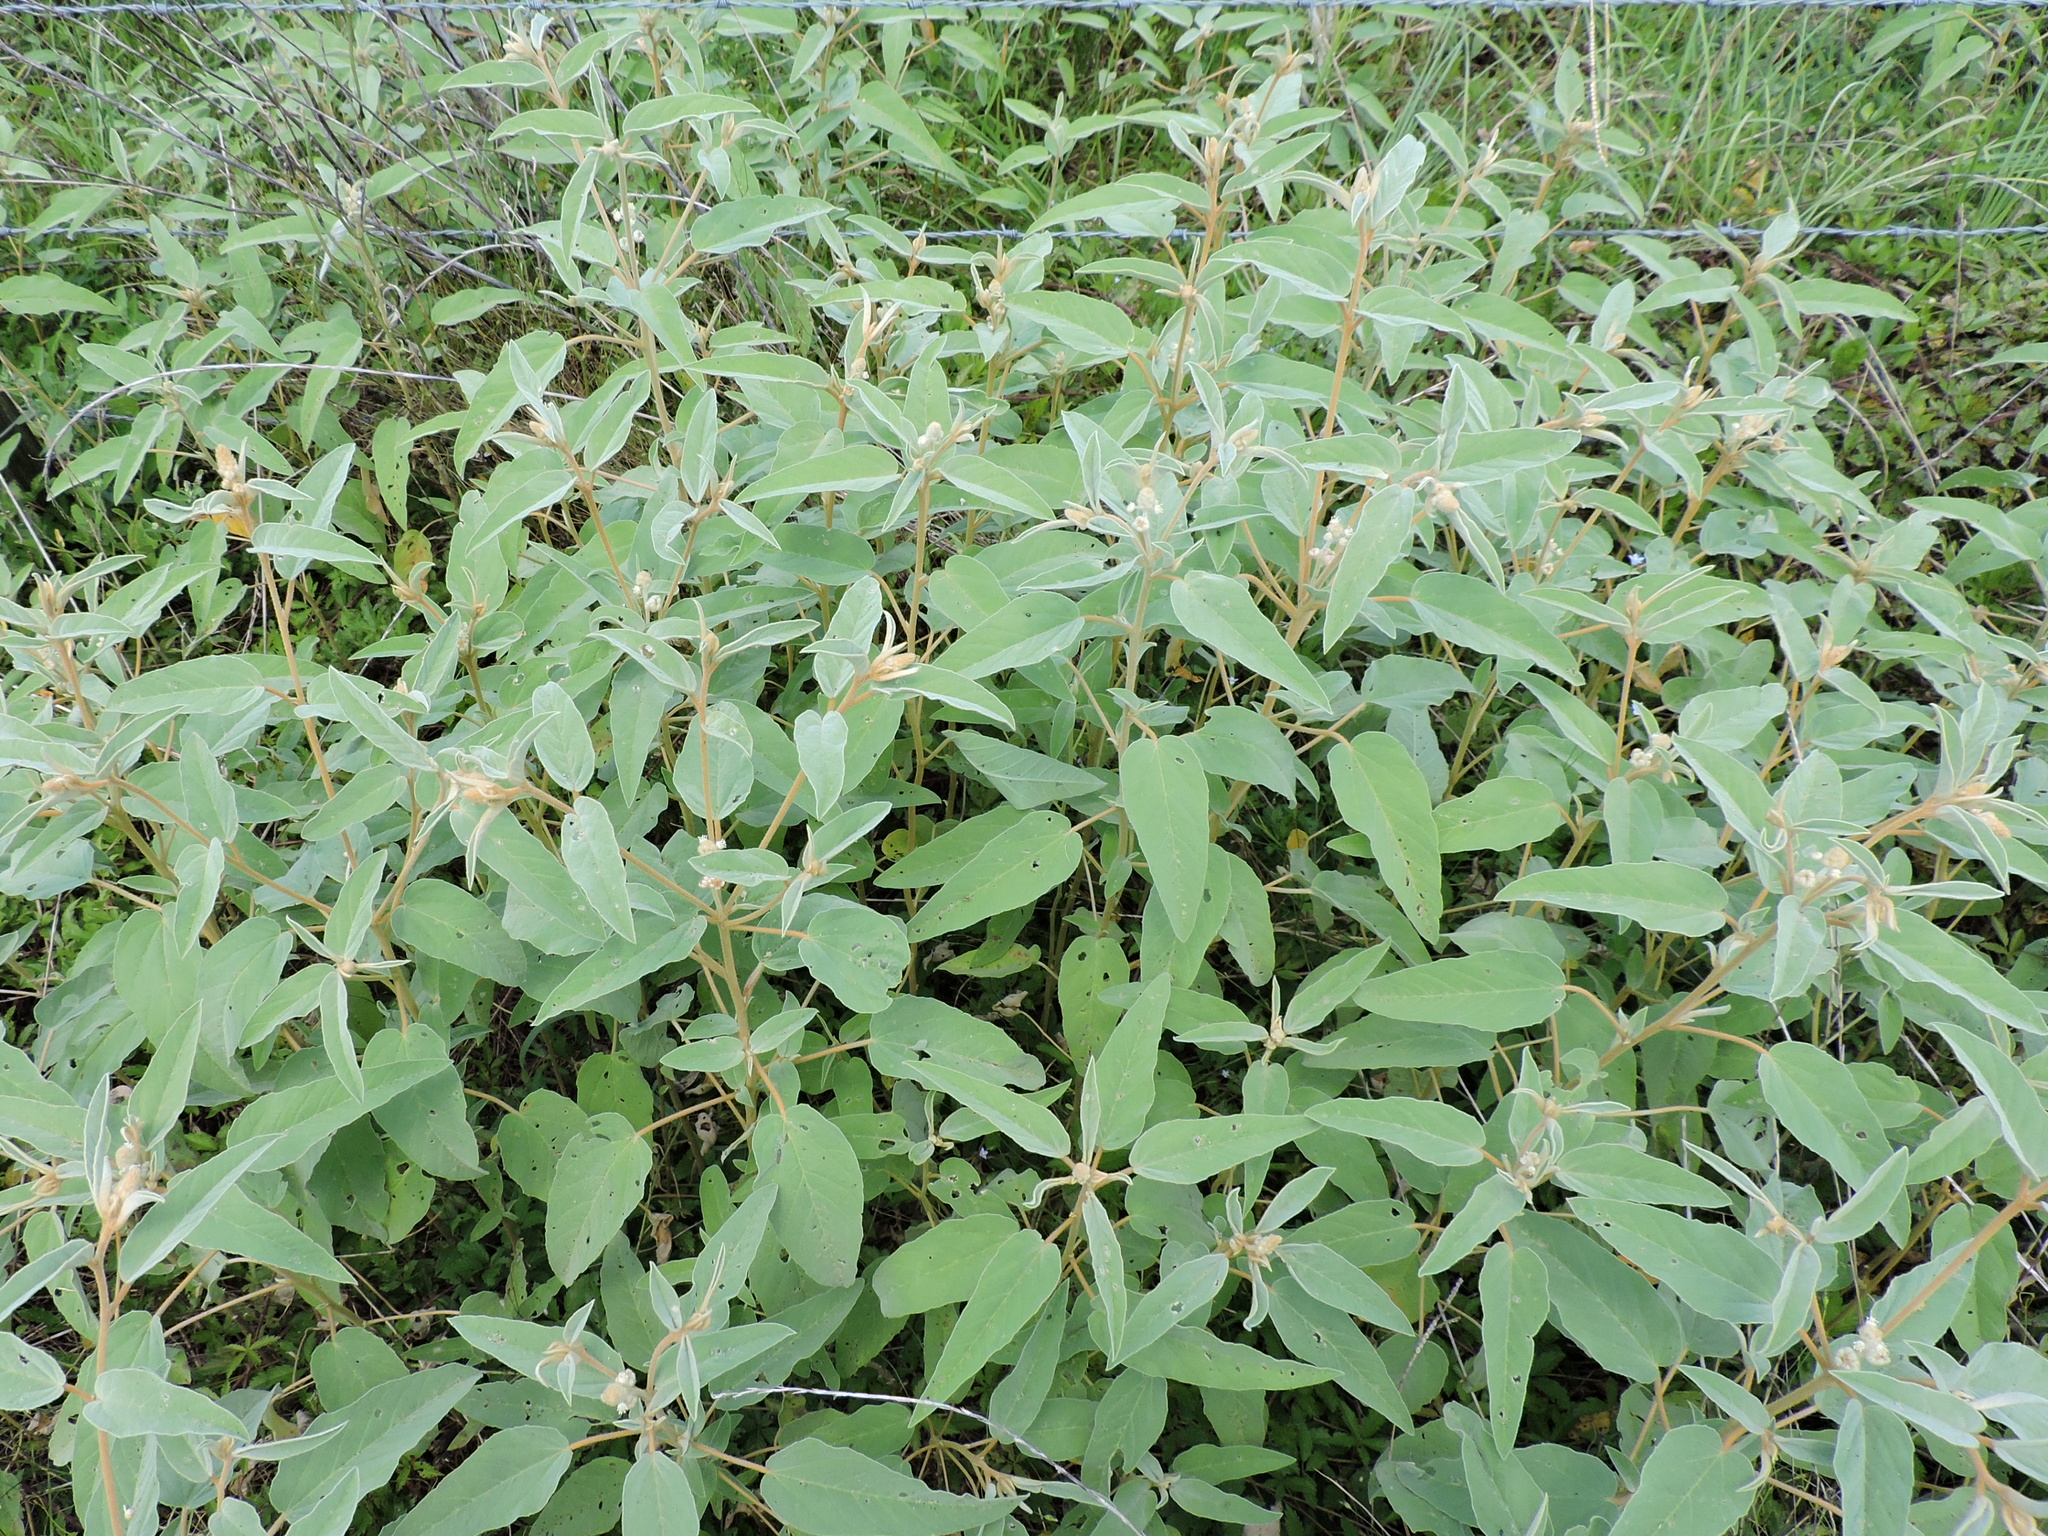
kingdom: Plantae
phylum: Tracheophyta
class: Magnoliopsida
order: Malpighiales
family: Euphorbiaceae
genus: Croton
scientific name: Croton lindheimeri
